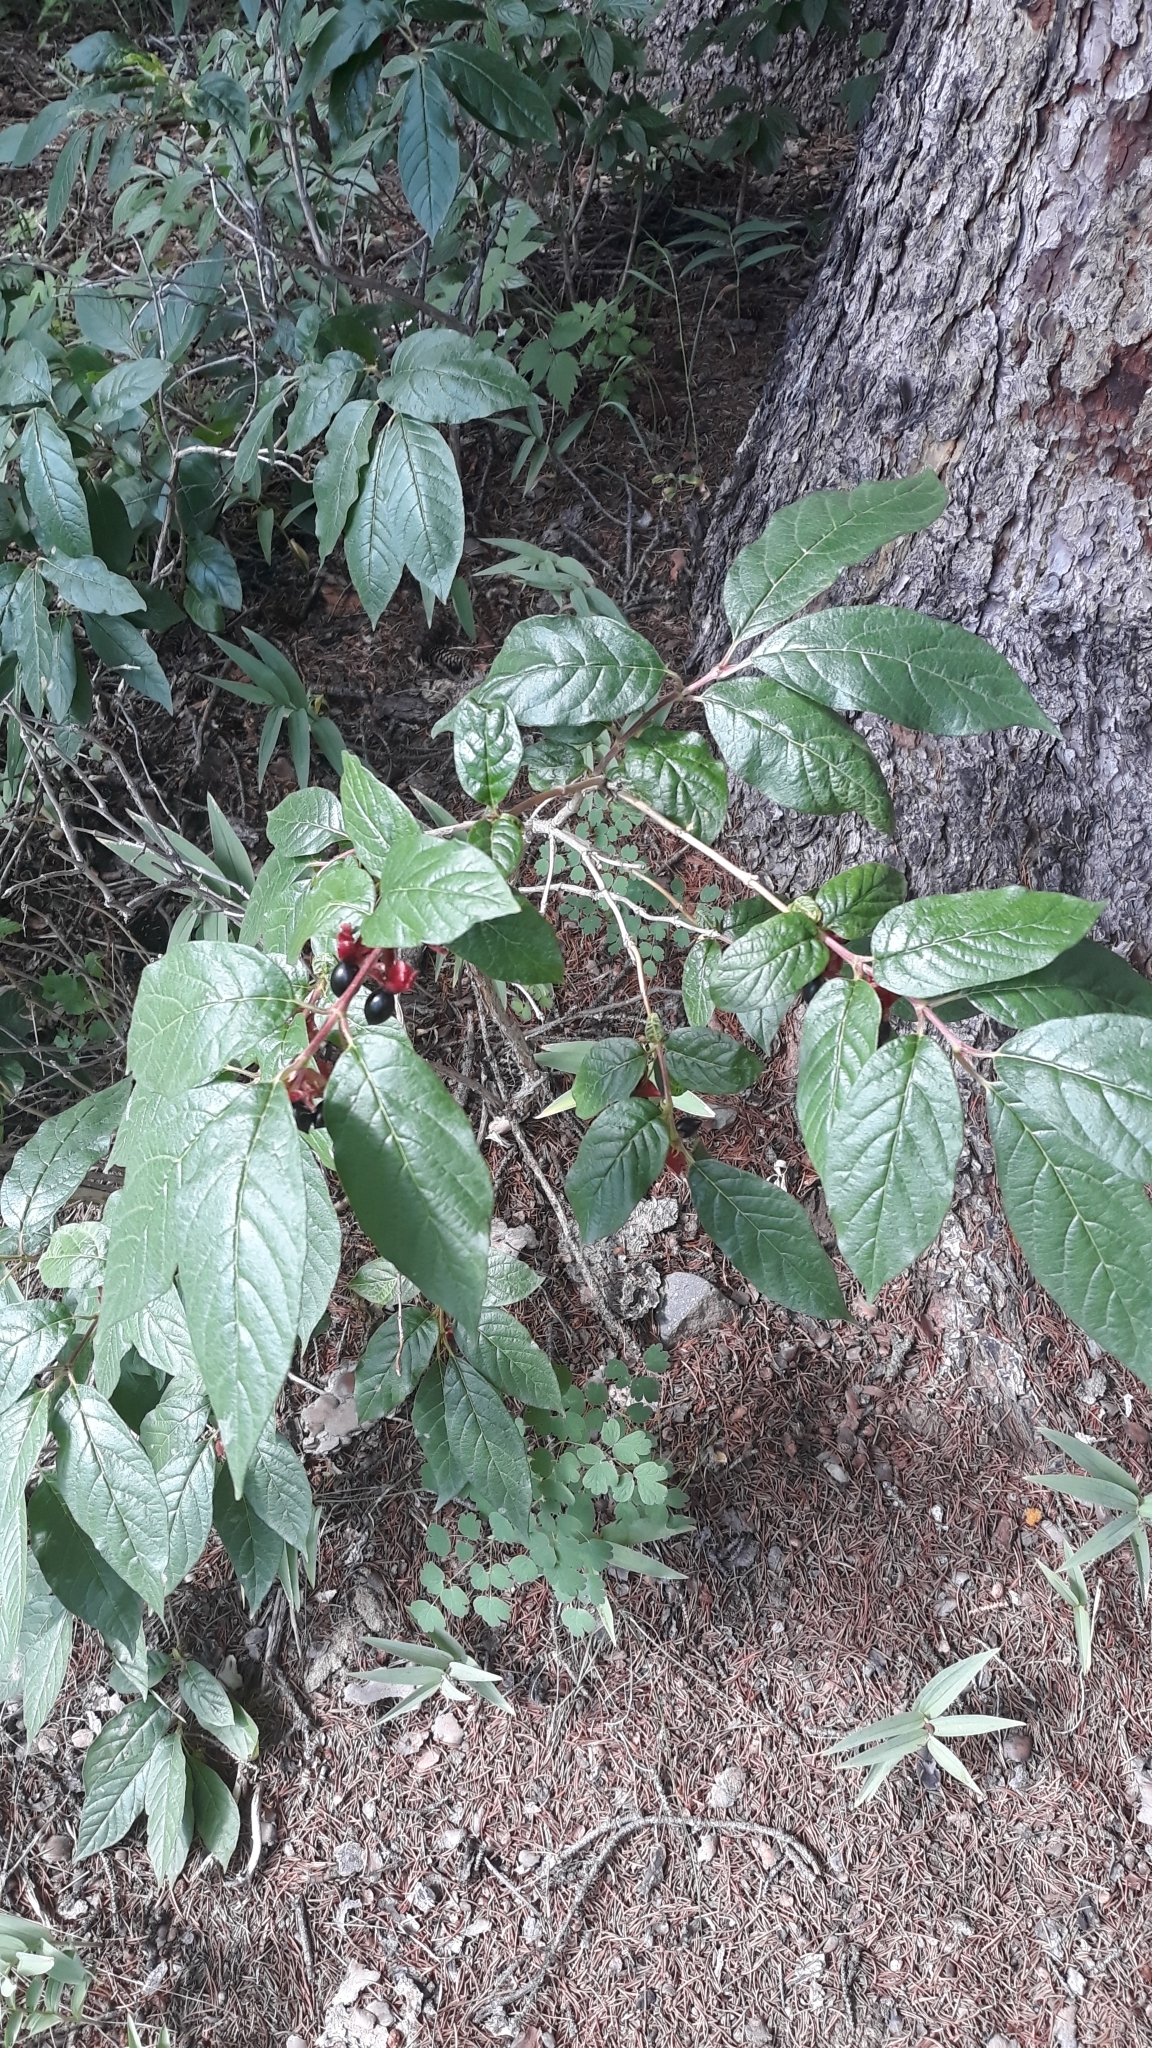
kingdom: Plantae
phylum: Tracheophyta
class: Magnoliopsida
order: Dipsacales
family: Caprifoliaceae
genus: Lonicera
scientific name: Lonicera involucrata
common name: Californian honeysuckle
